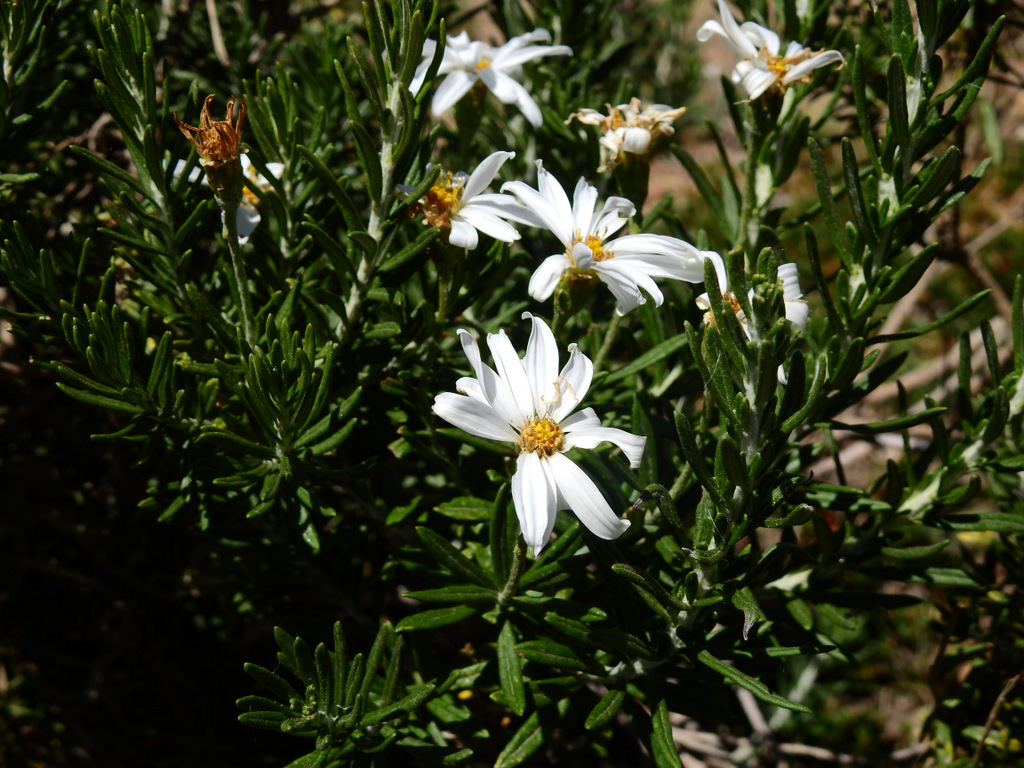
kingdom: Plantae
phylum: Tracheophyta
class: Magnoliopsida
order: Asterales
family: Asteraceae
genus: Chiliotrichum
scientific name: Chiliotrichum diffusum
